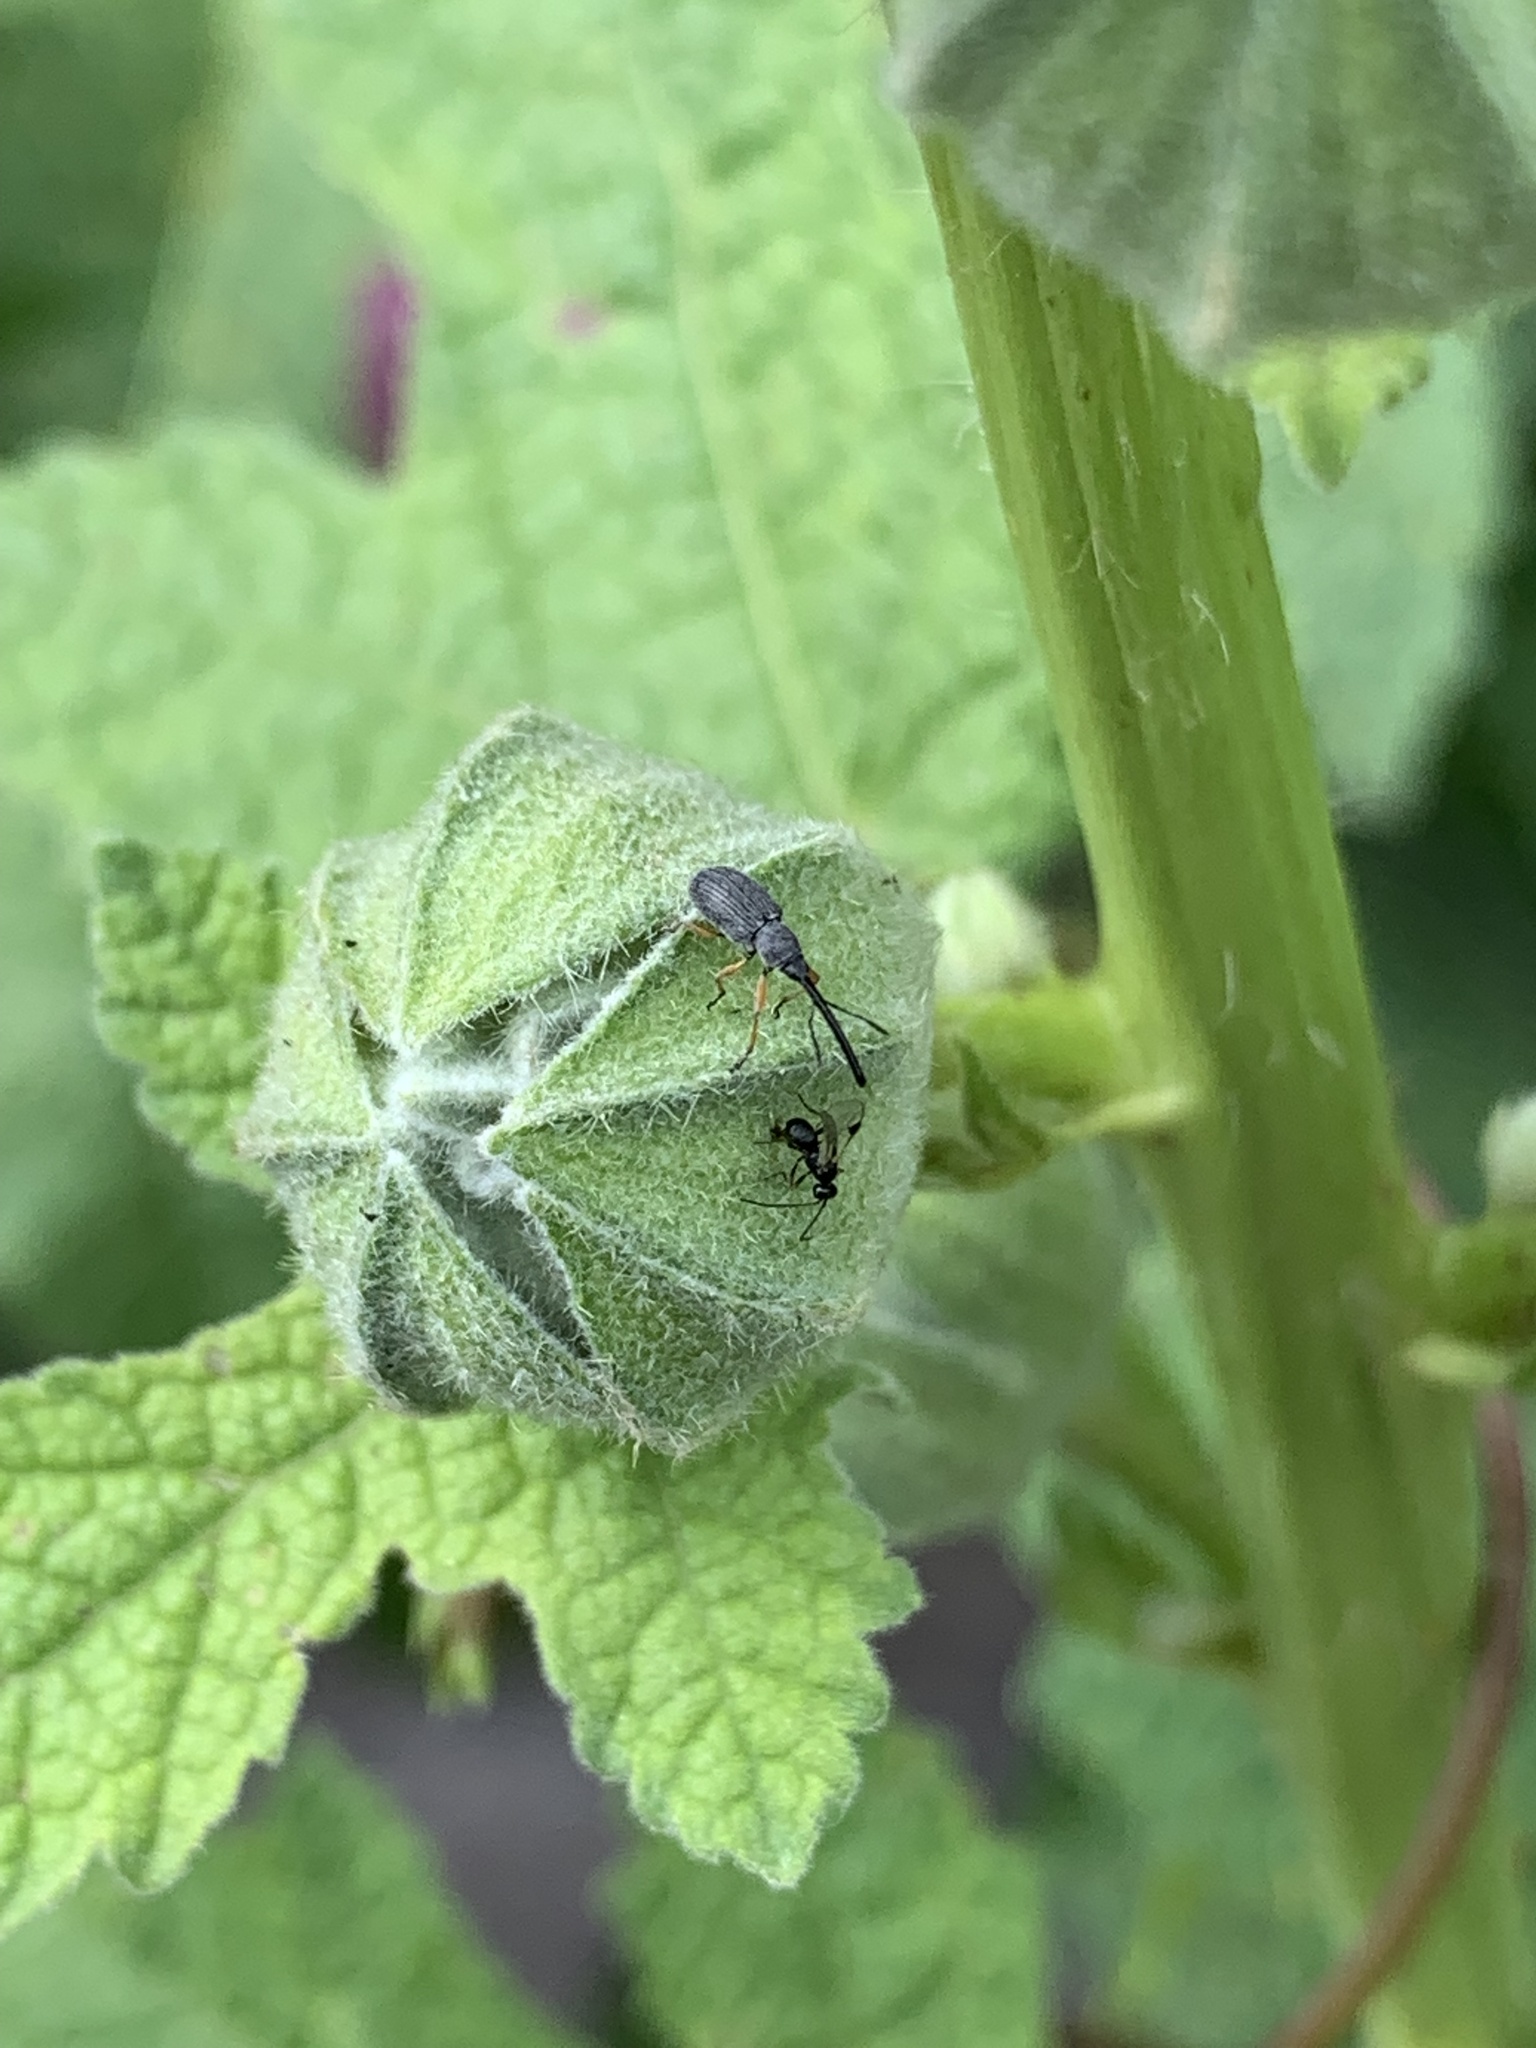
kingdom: Animalia
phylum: Arthropoda
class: Insecta
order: Coleoptera
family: Brentidae
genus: Rhopalapion
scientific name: Rhopalapion longirostre
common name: Hollyhock weevil
